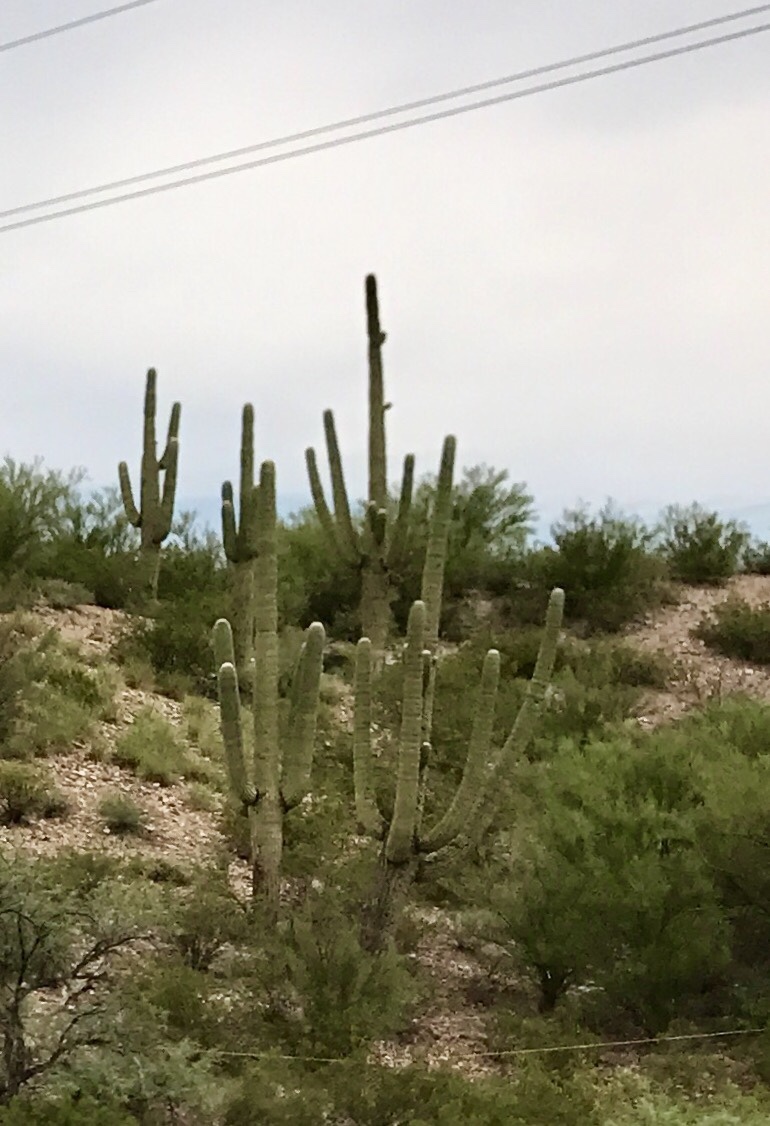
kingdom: Plantae
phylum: Tracheophyta
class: Magnoliopsida
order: Caryophyllales
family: Cactaceae
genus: Carnegiea
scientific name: Carnegiea gigantea
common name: Saguaro
